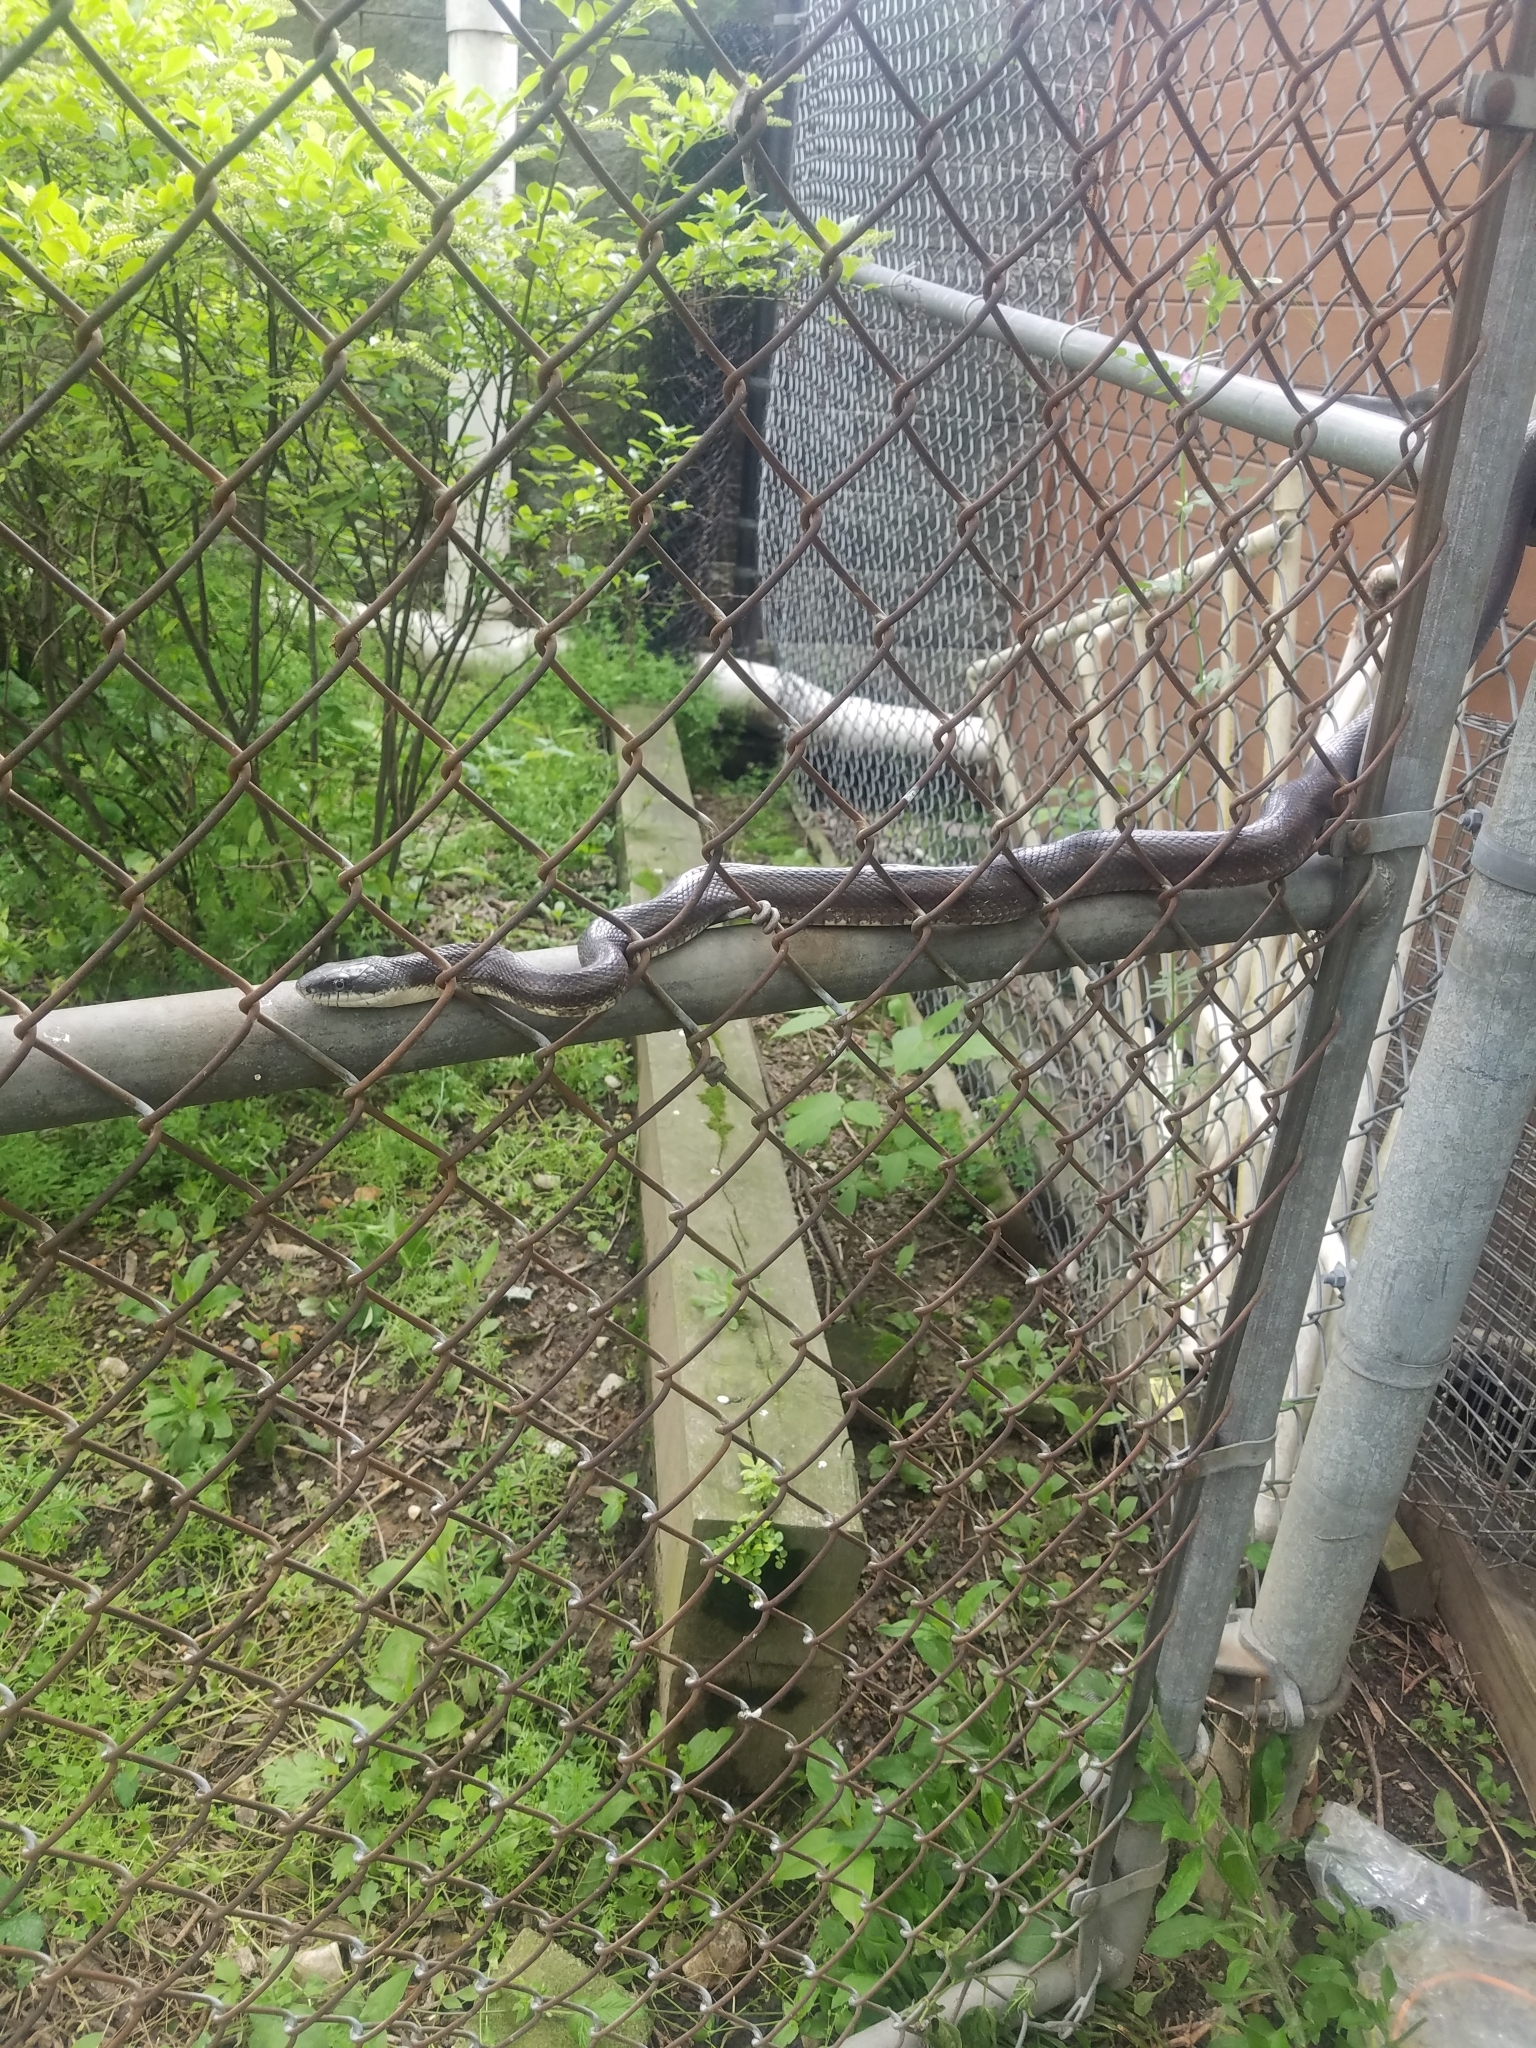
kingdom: Animalia
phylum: Chordata
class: Squamata
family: Colubridae
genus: Pantherophis
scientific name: Pantherophis alleghaniensis
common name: Eastern rat snake
